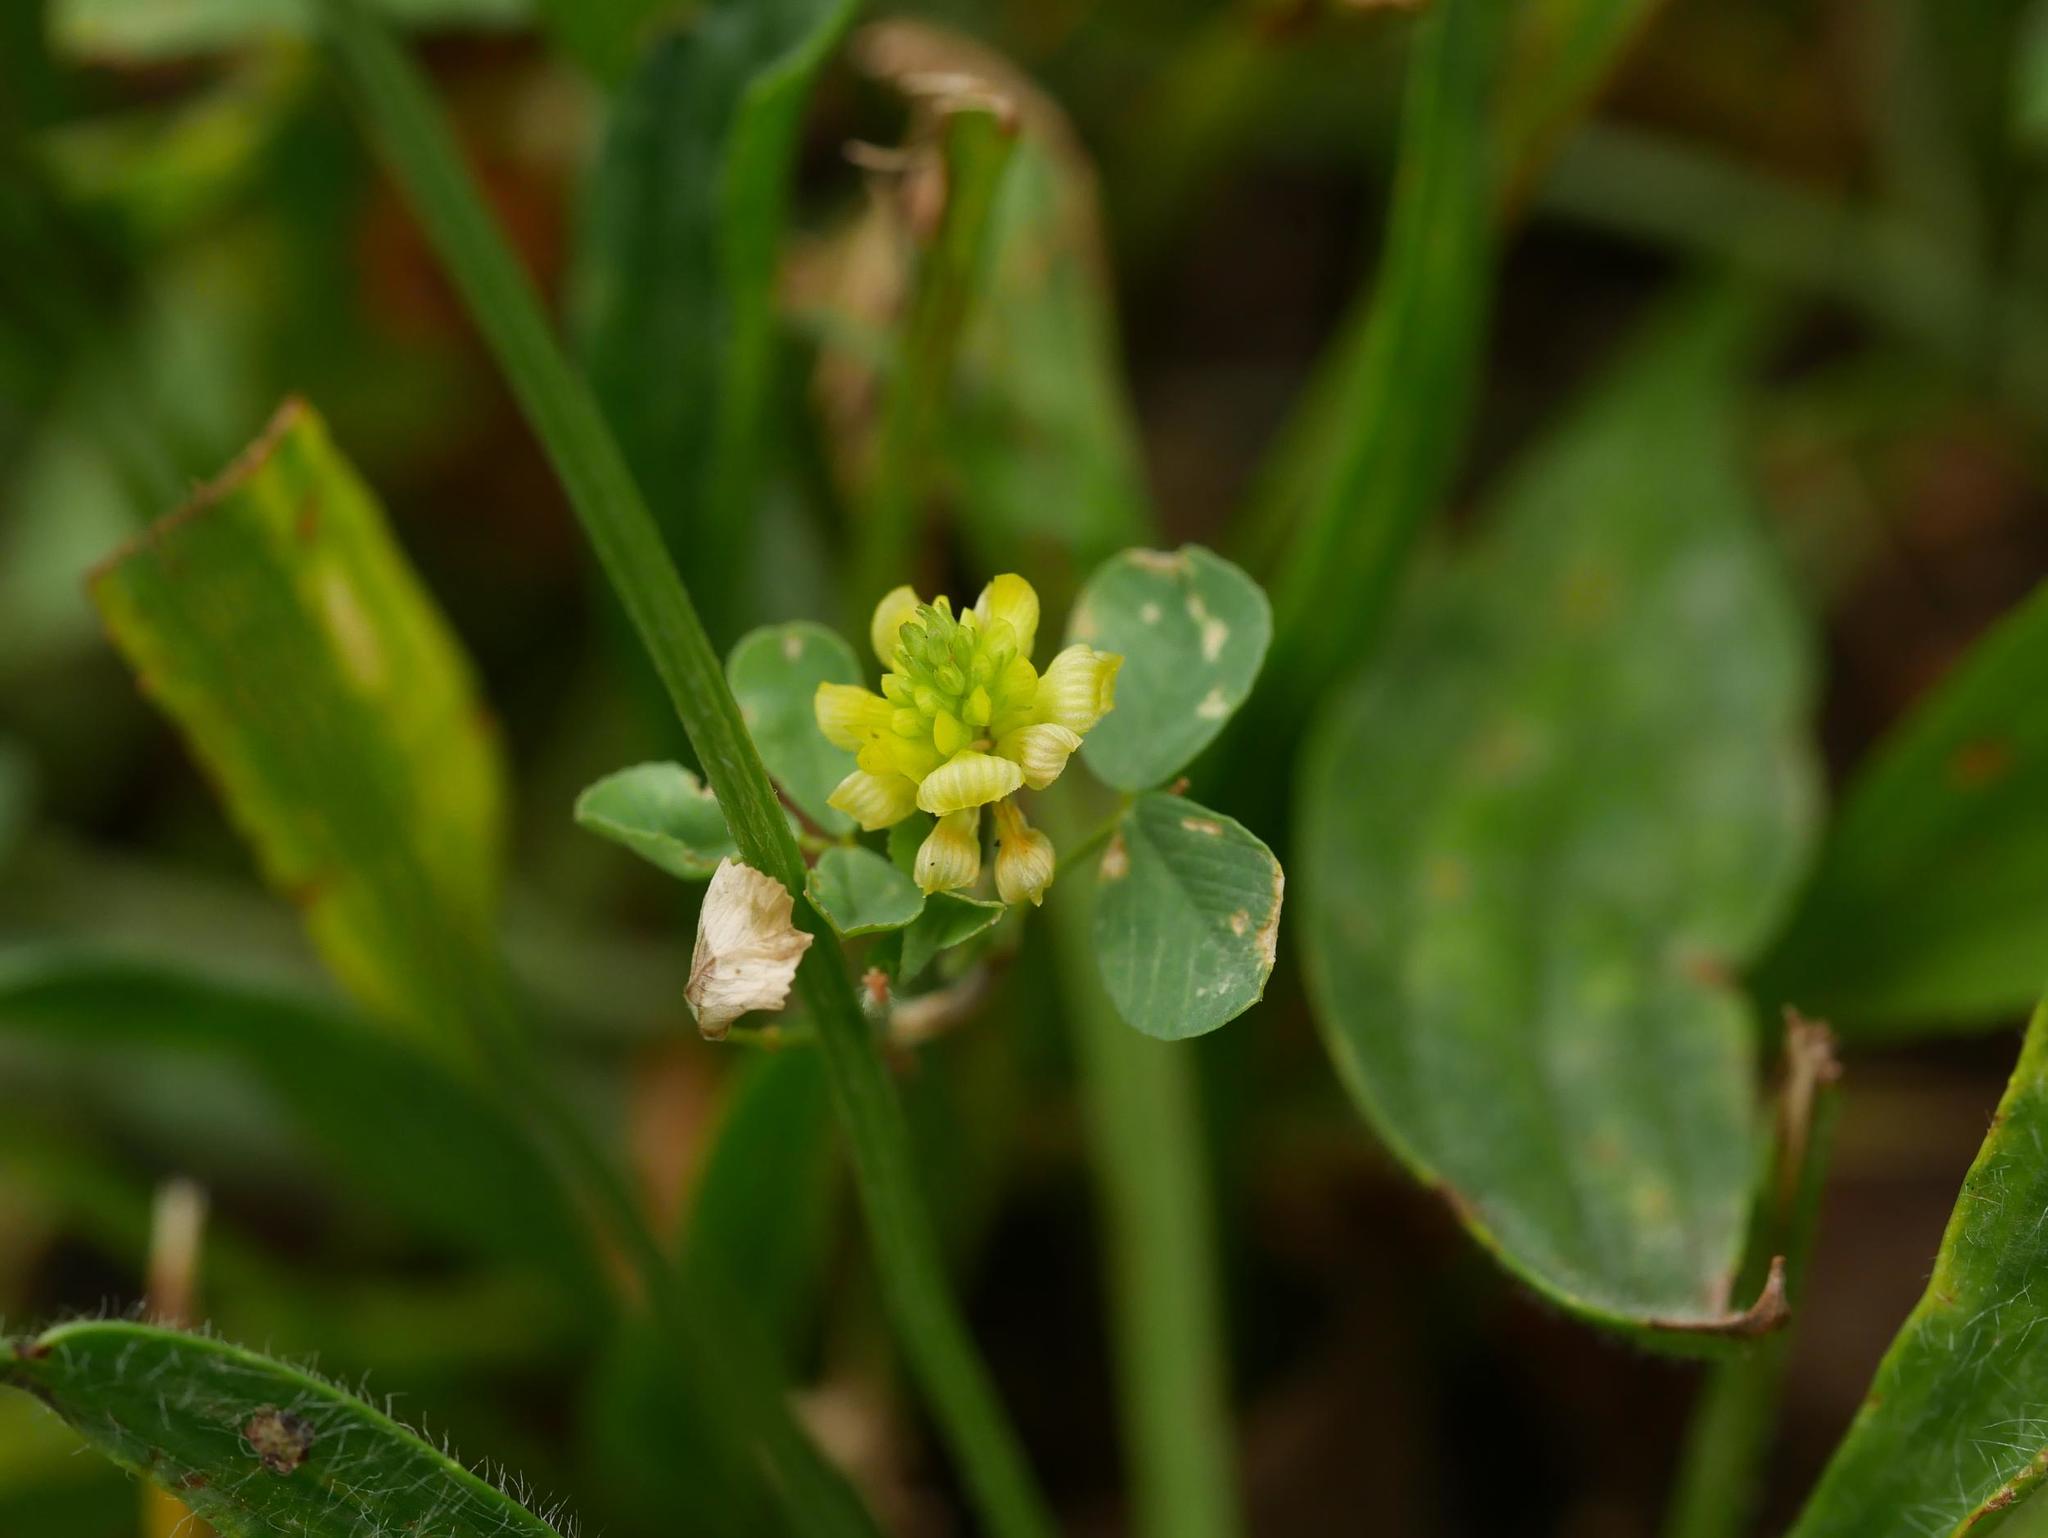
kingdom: Plantae
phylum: Tracheophyta
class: Magnoliopsida
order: Fabales
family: Fabaceae
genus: Trifolium
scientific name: Trifolium campestre
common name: Field clover
